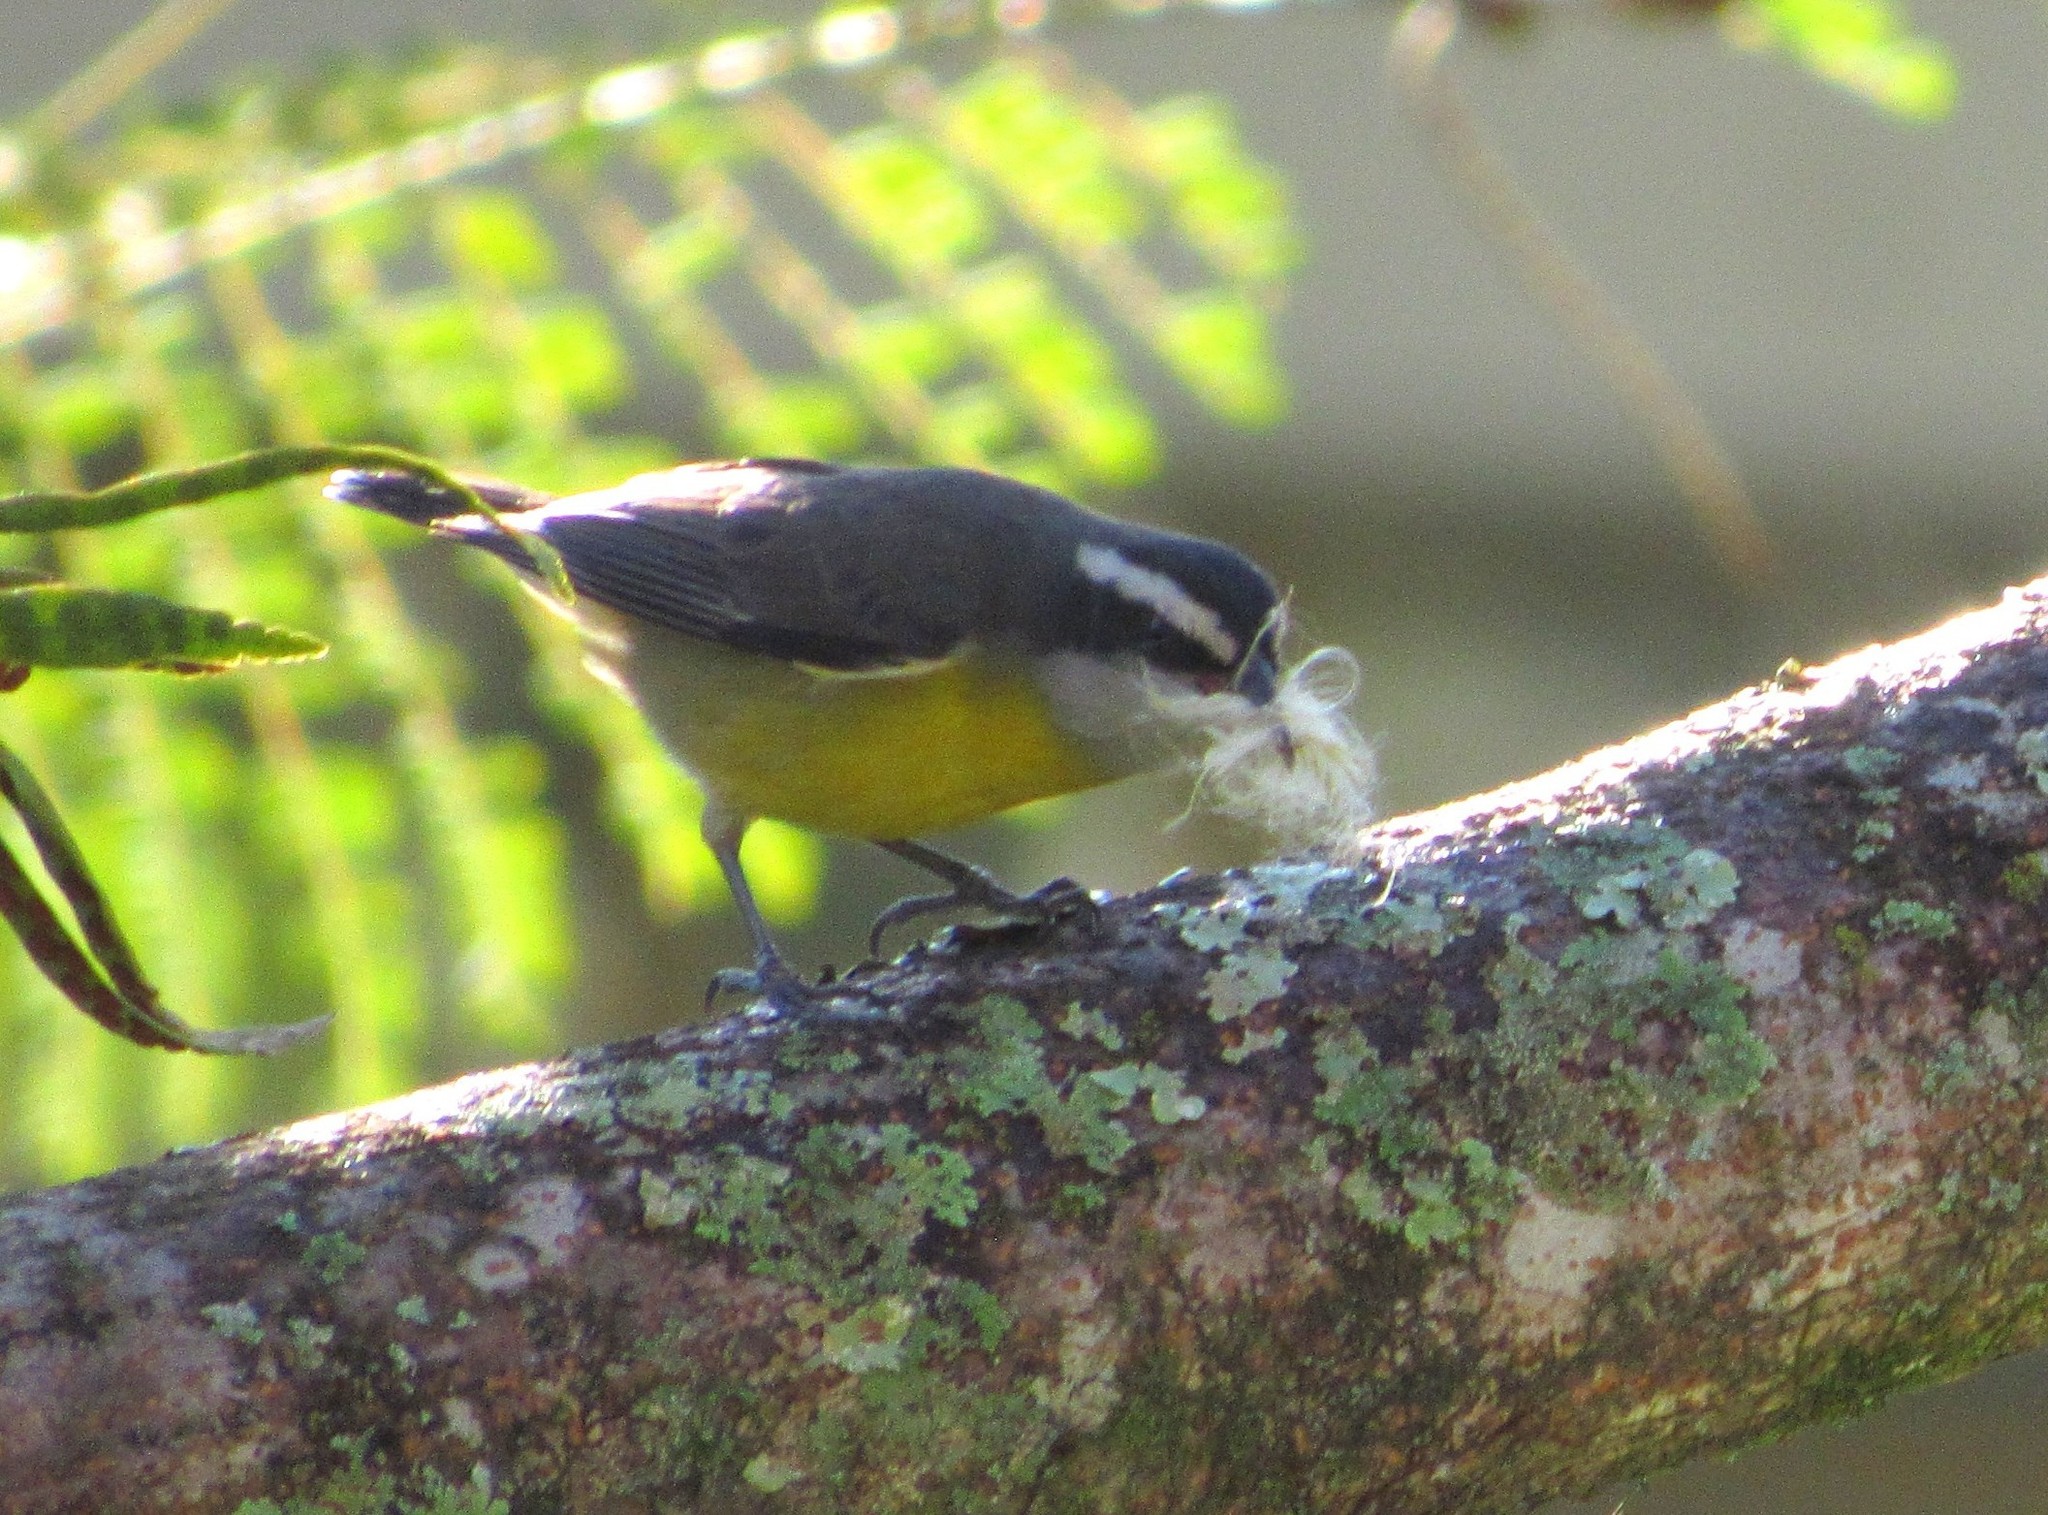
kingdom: Animalia
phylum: Chordata
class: Aves
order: Passeriformes
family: Thraupidae
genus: Coereba
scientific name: Coereba flaveola
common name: Bananaquit
